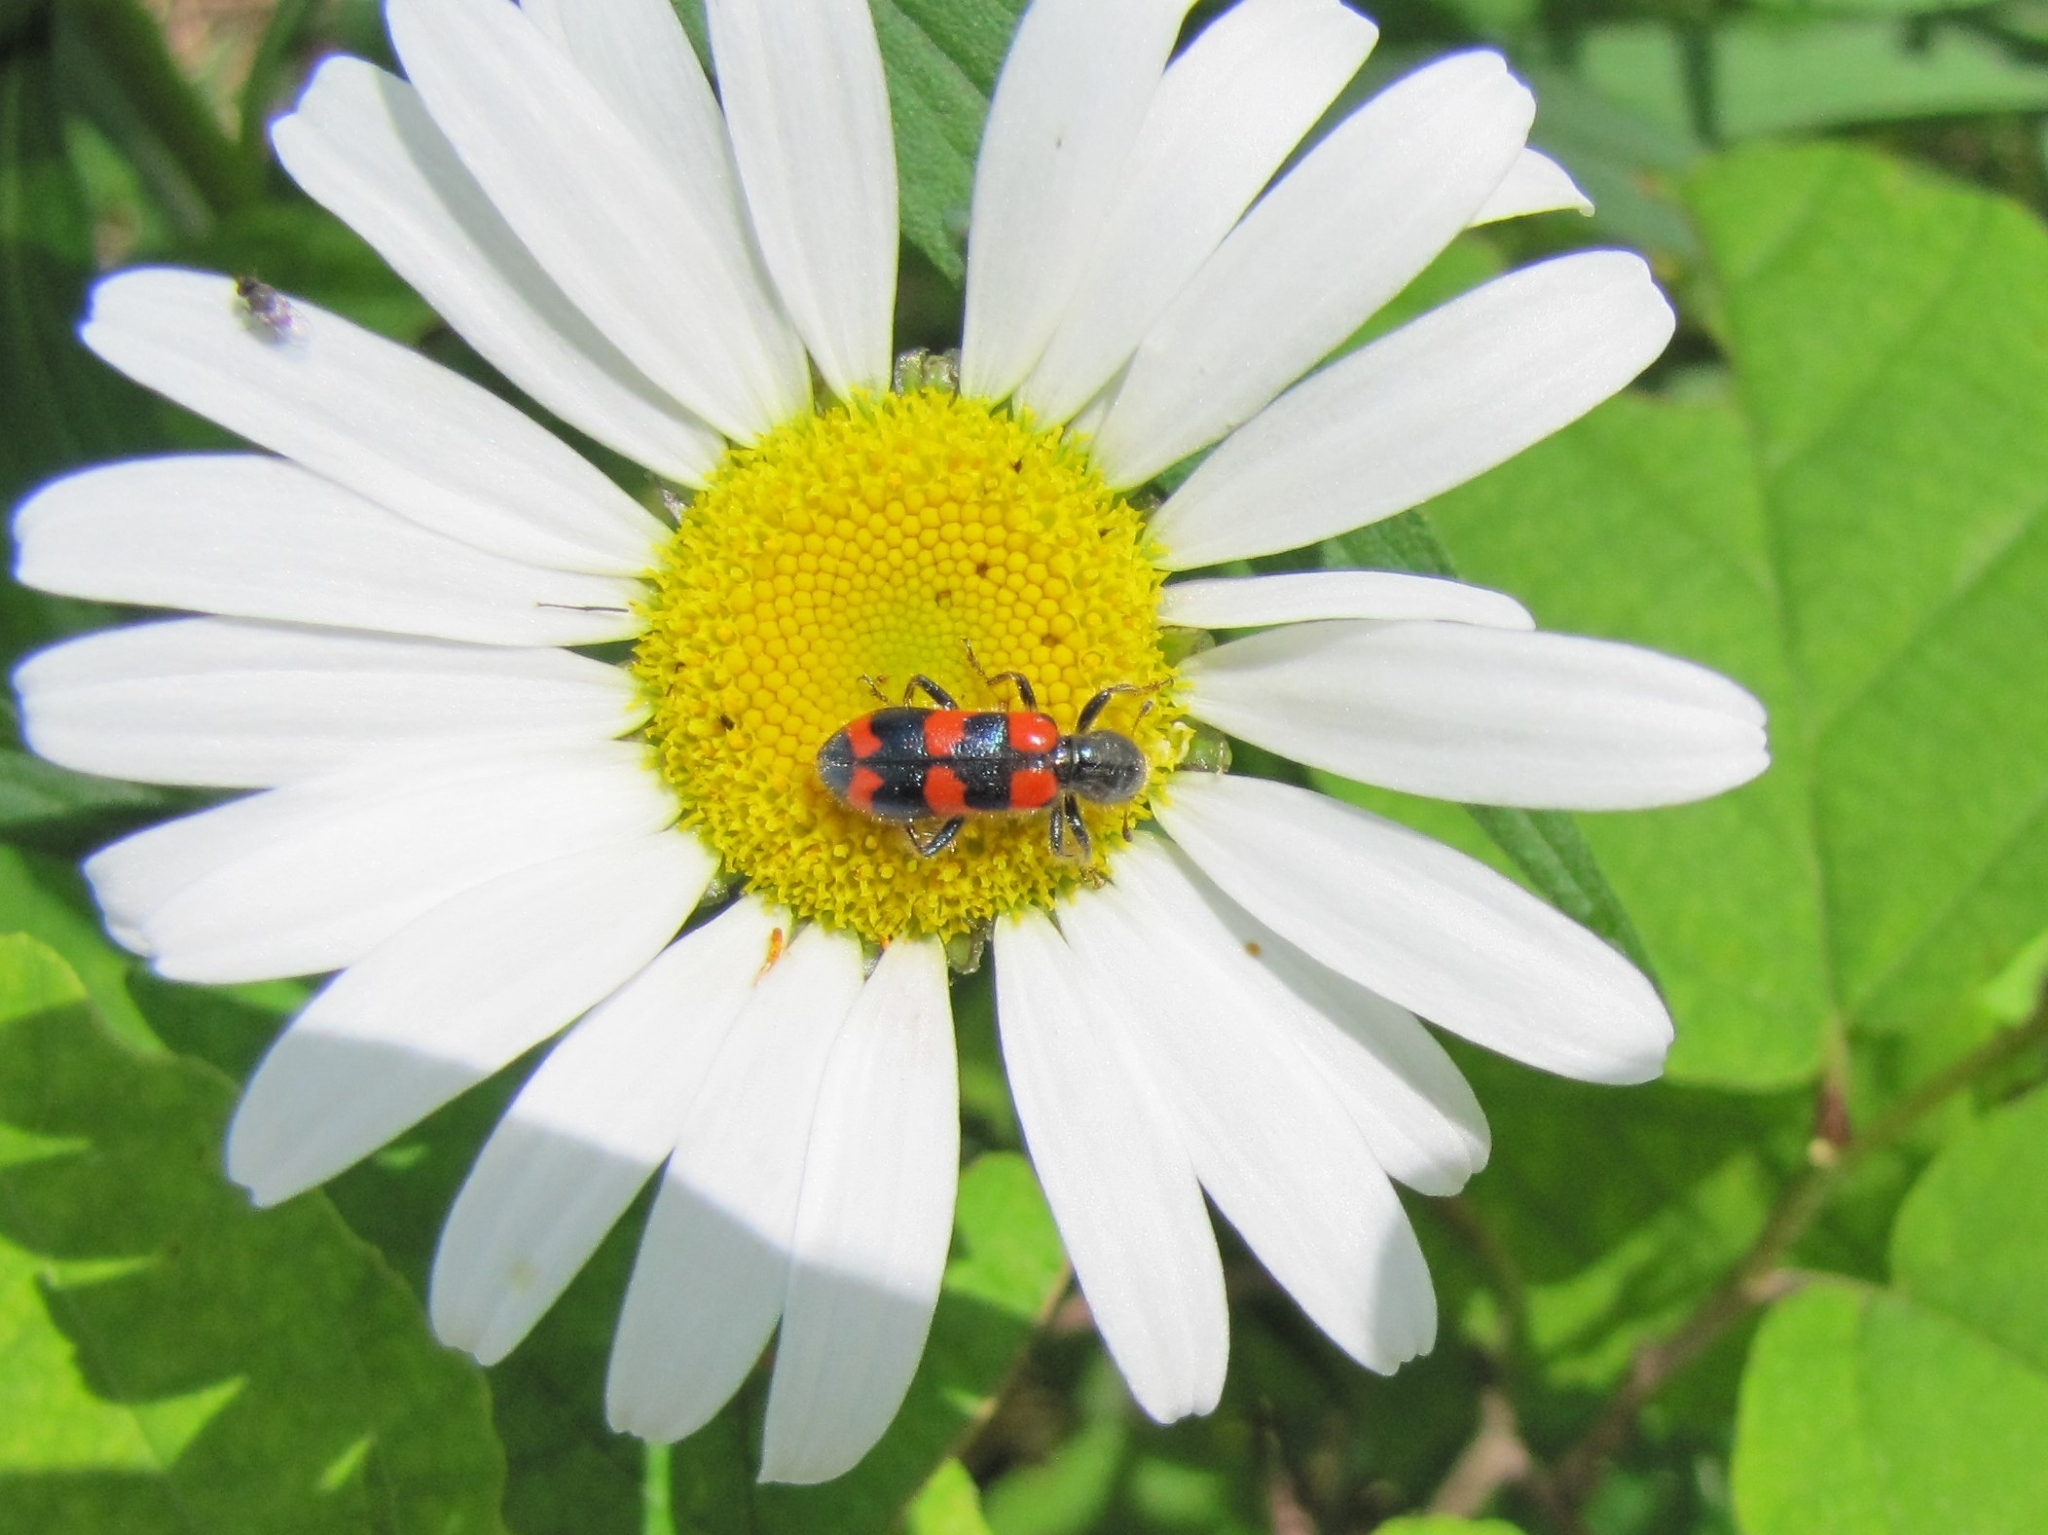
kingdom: Animalia
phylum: Arthropoda
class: Insecta
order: Coleoptera
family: Cleridae
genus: Trichodes
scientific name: Trichodes nutalli
